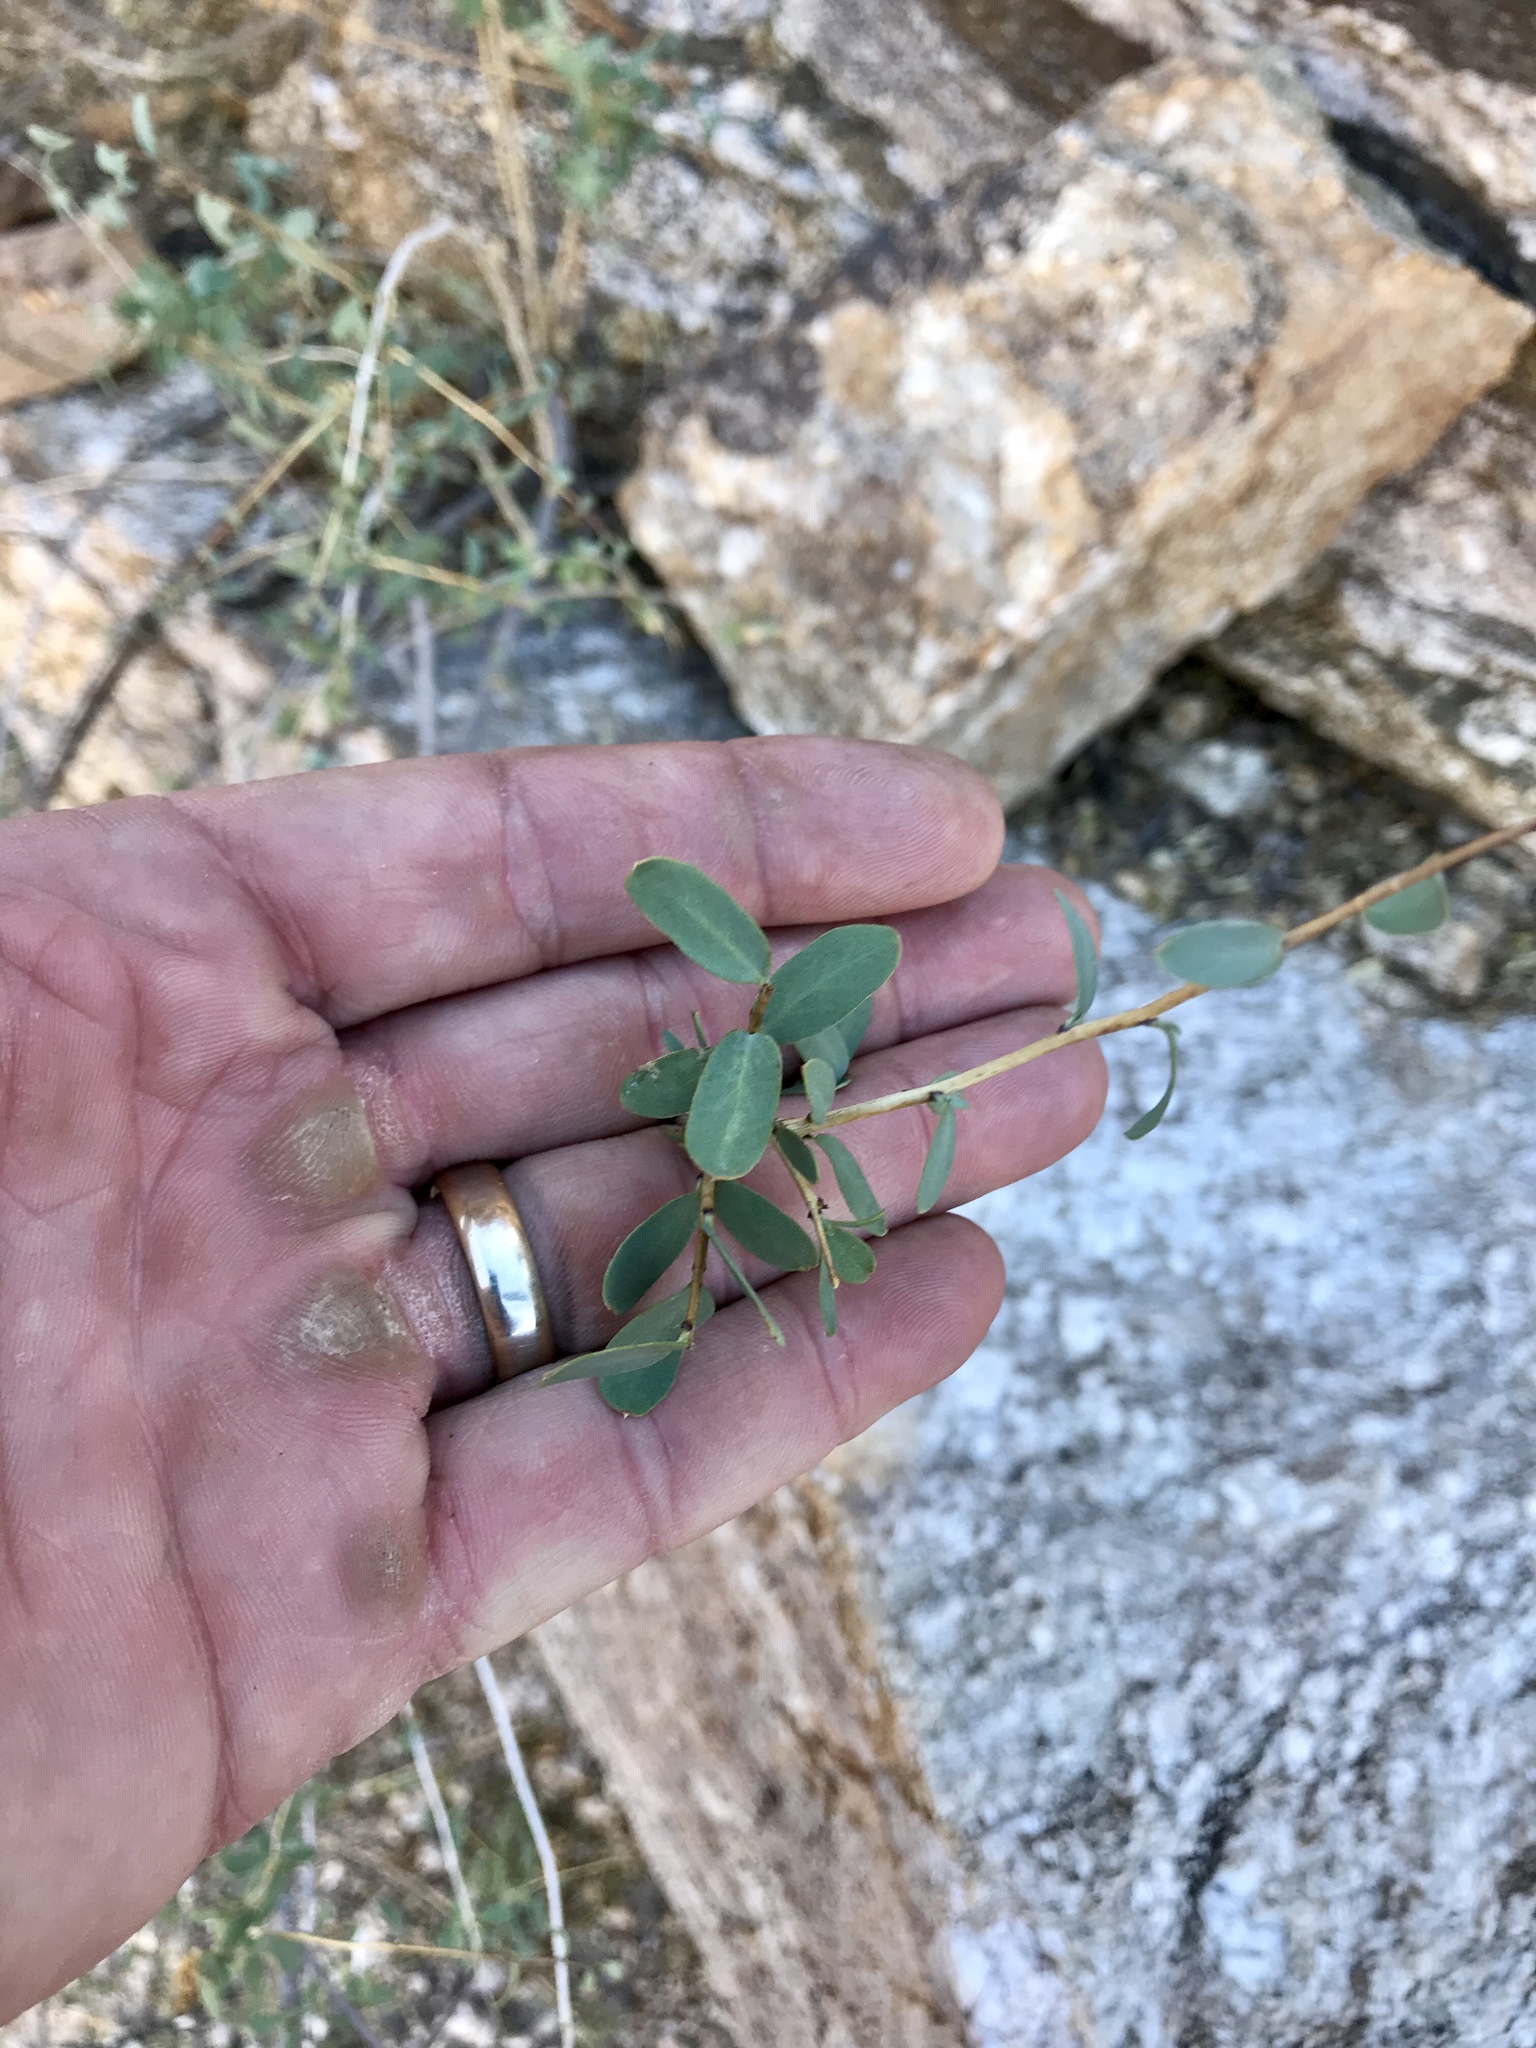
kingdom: Plantae
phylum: Tracheophyta
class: Magnoliopsida
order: Crossosomatales
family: Crossosomataceae
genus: Crossosoma
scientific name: Crossosoma bigelovii
